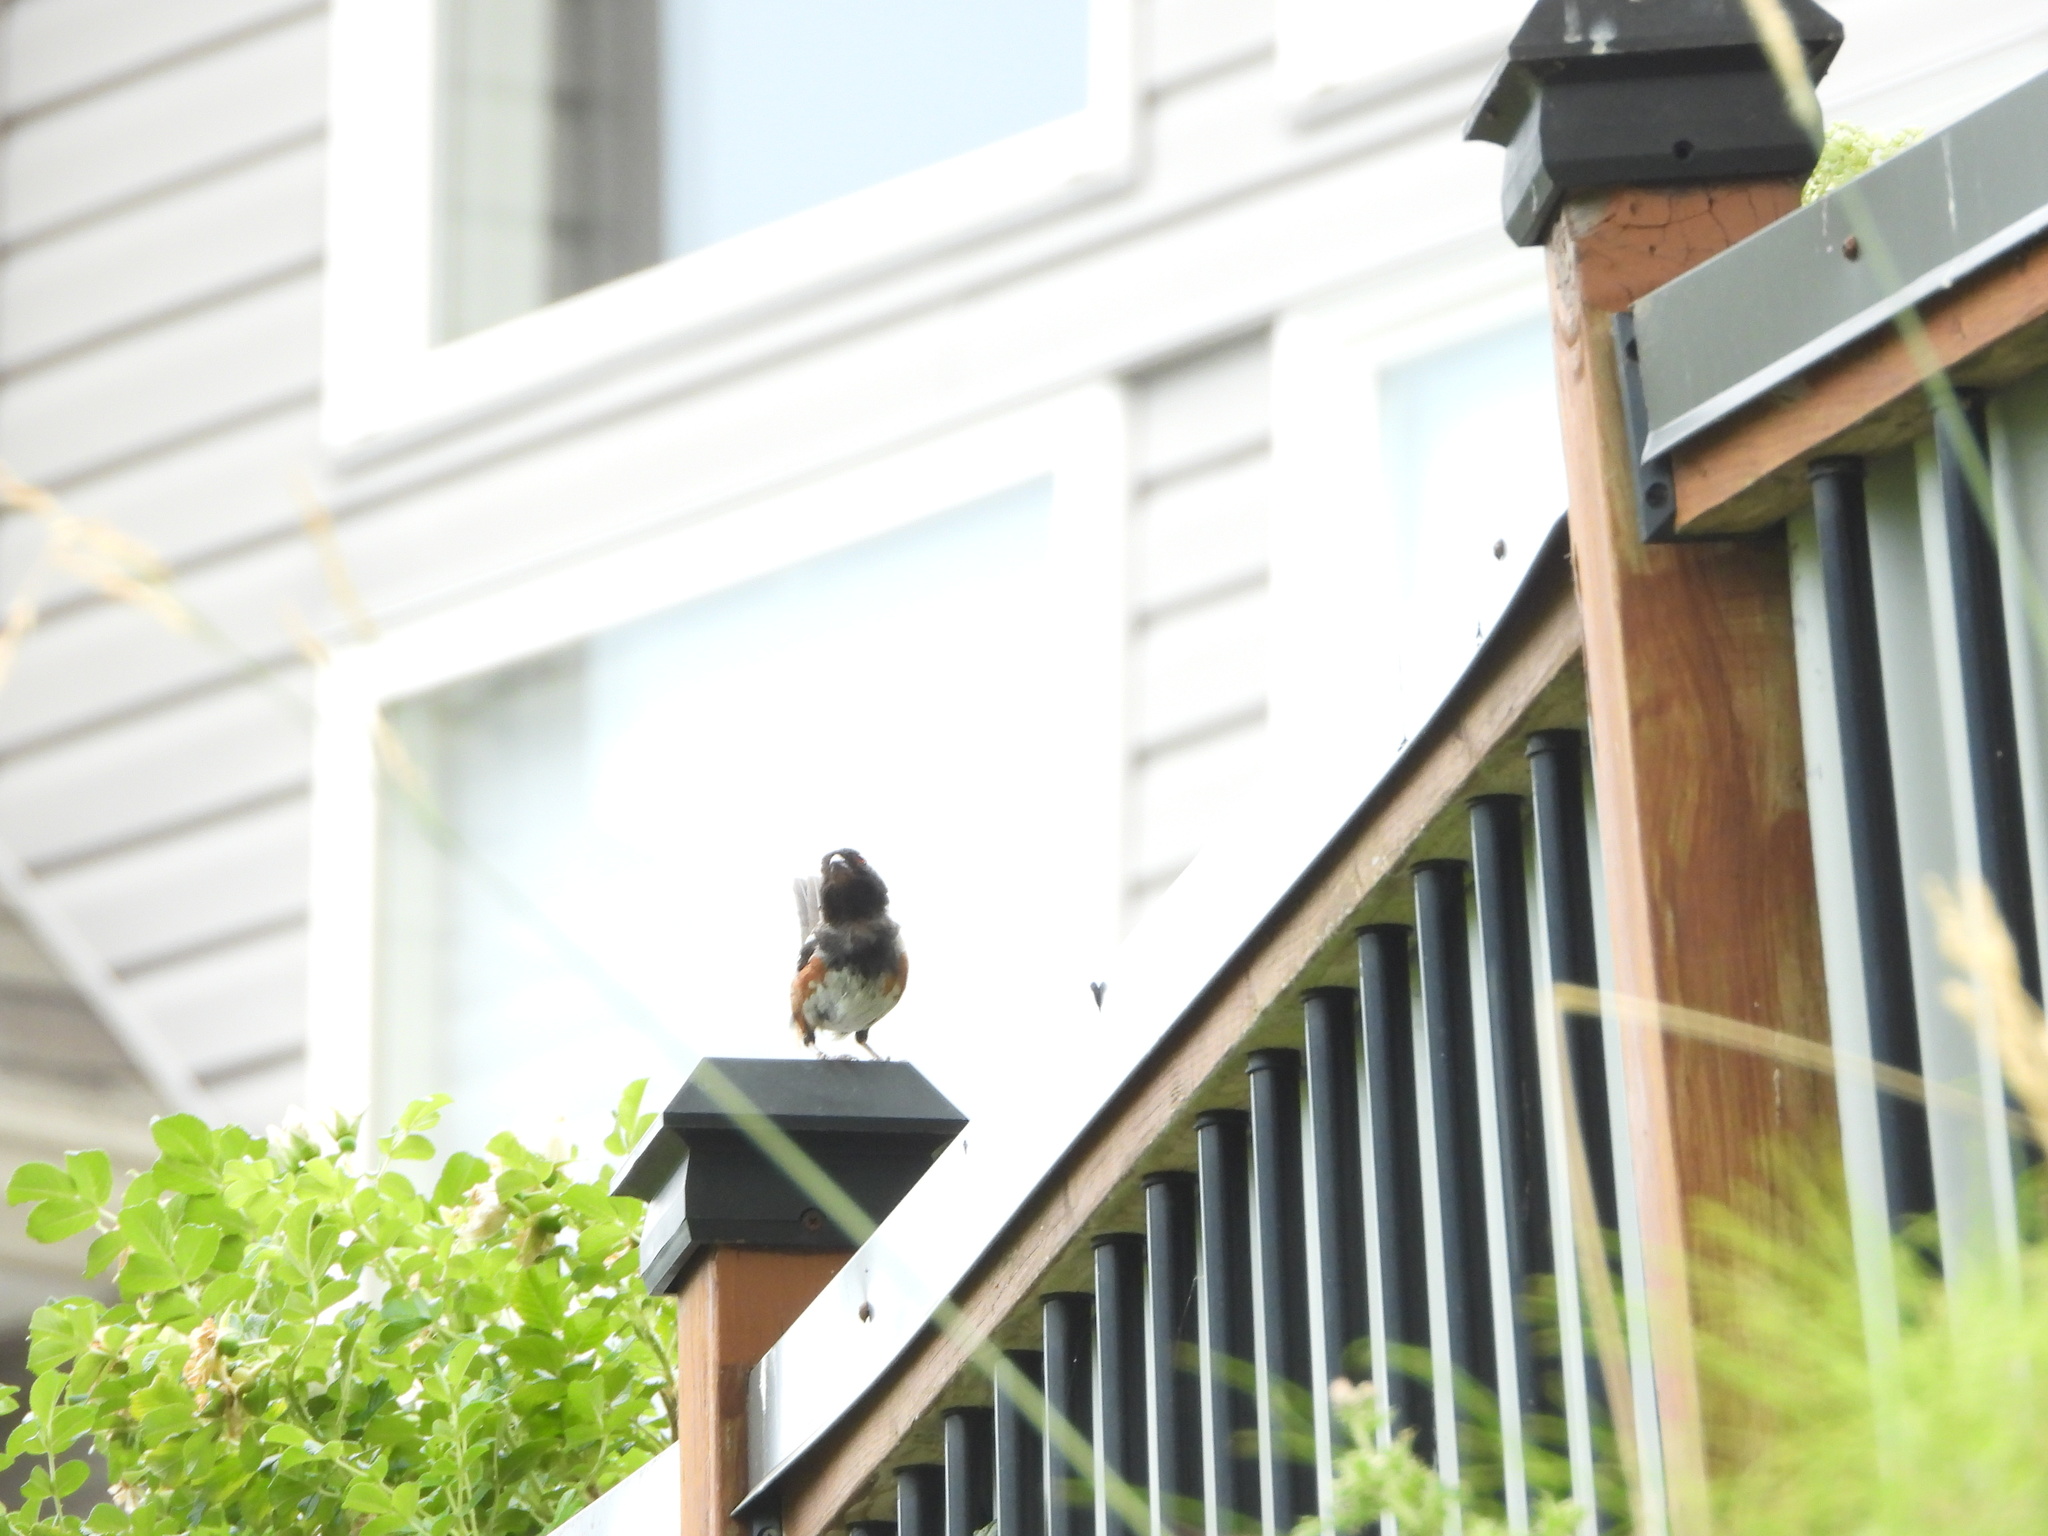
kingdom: Animalia
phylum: Chordata
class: Aves
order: Passeriformes
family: Passerellidae
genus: Pipilo
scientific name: Pipilo maculatus
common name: Spotted towhee
